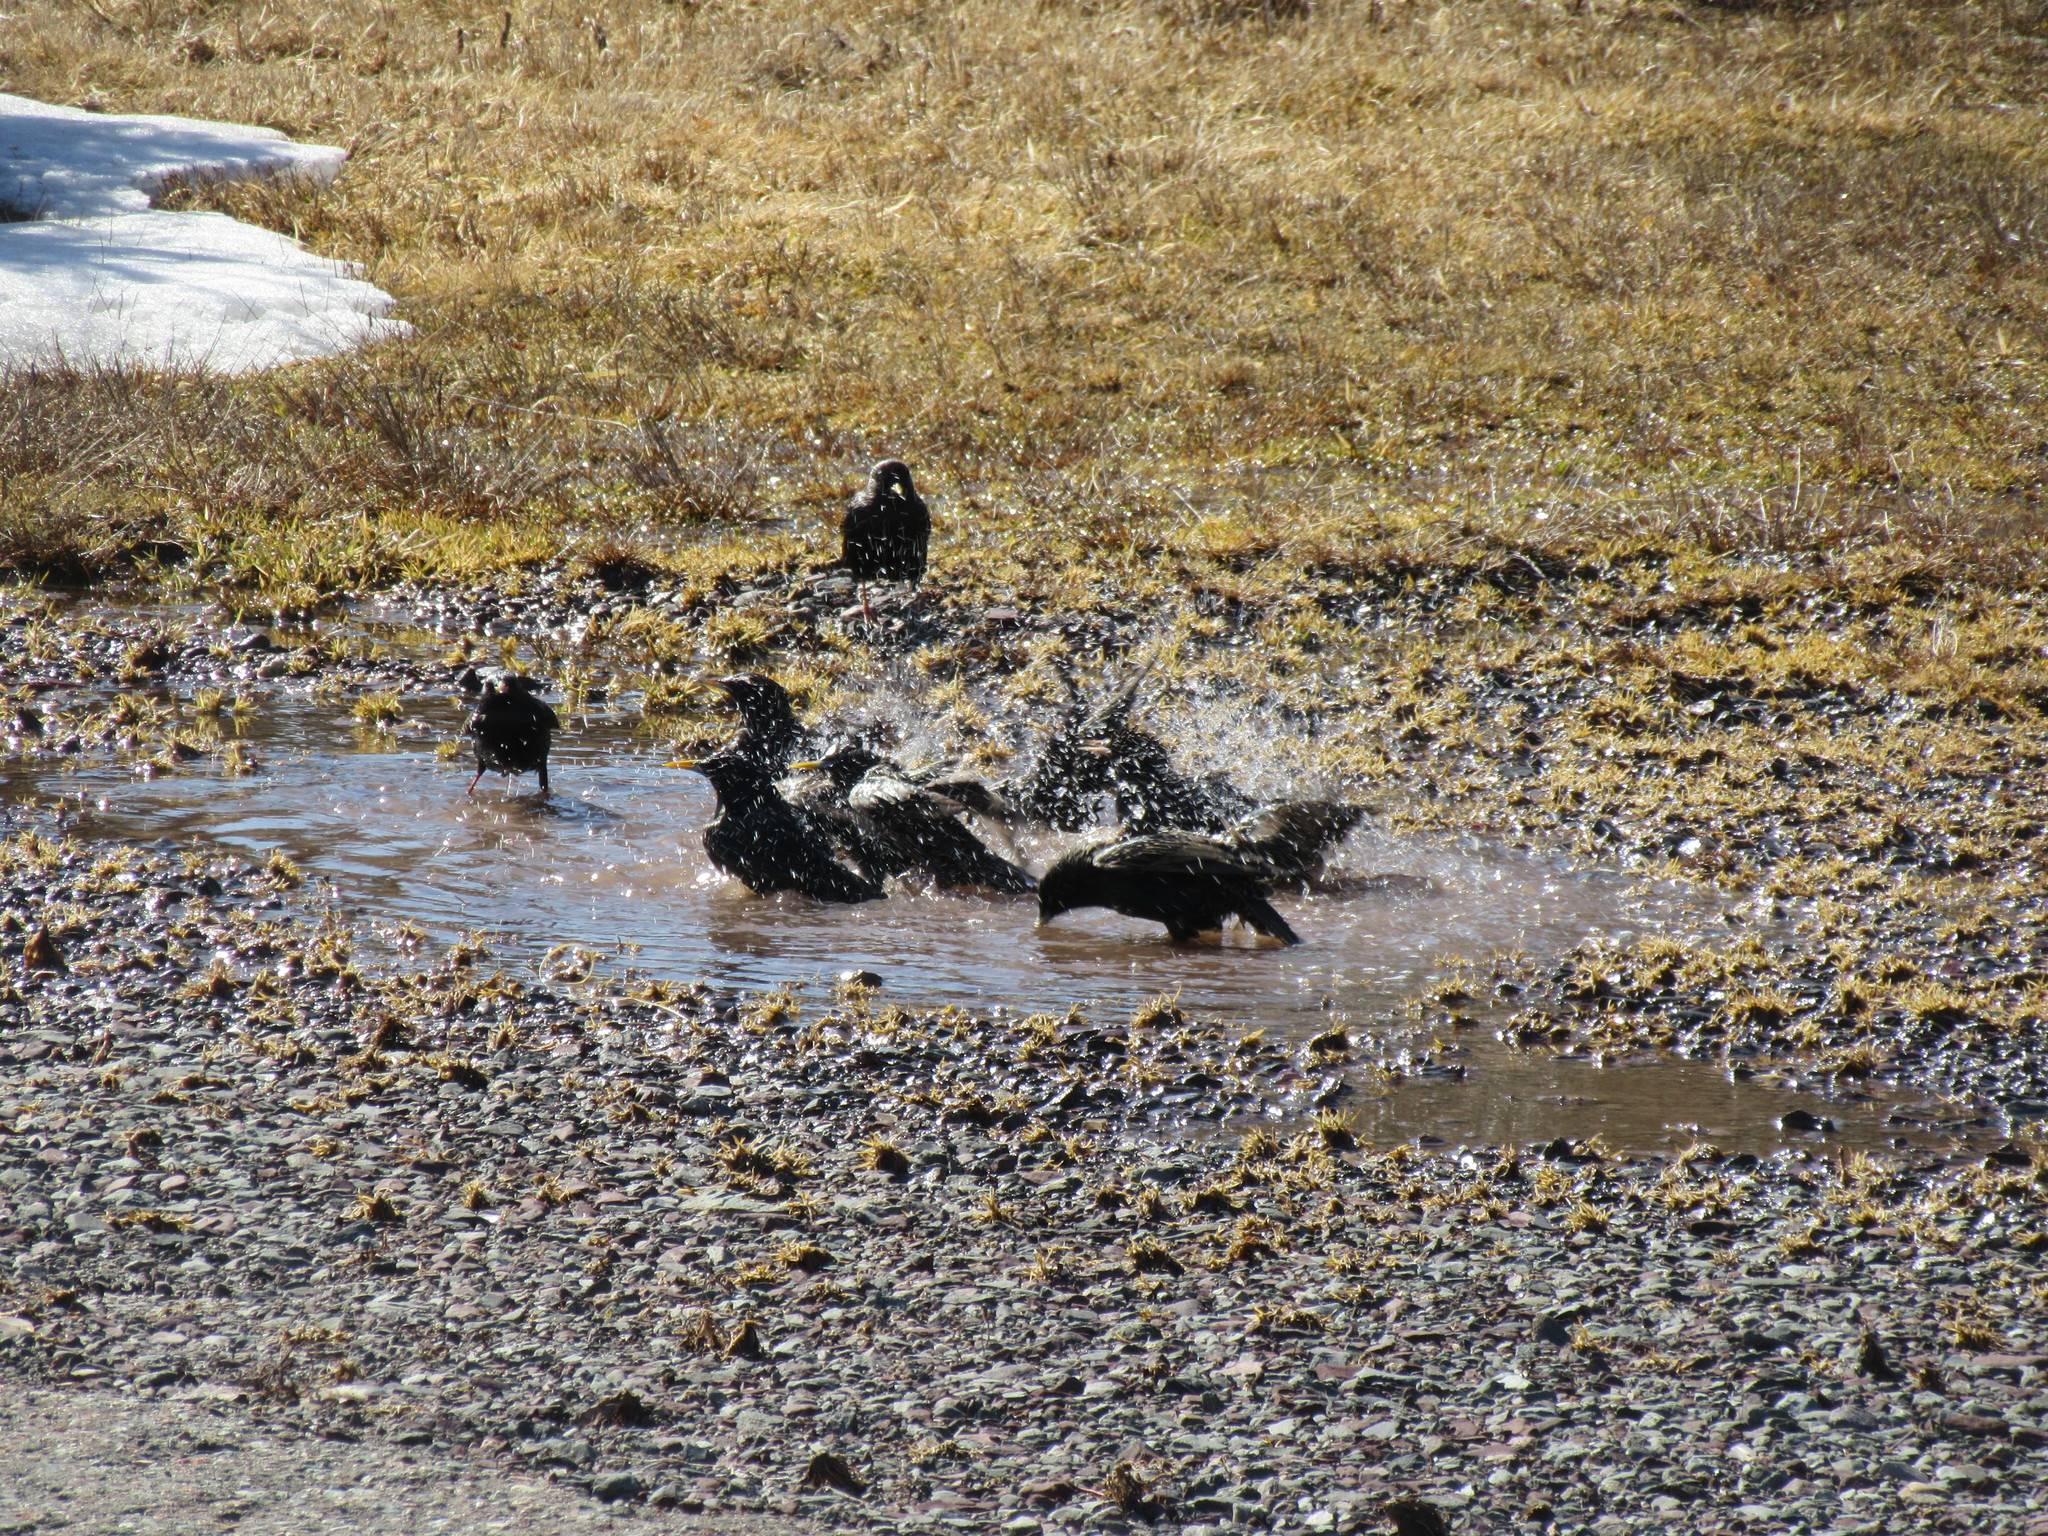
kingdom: Animalia
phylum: Chordata
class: Aves
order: Passeriformes
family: Sturnidae
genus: Sturnus
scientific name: Sturnus vulgaris
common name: Common starling
